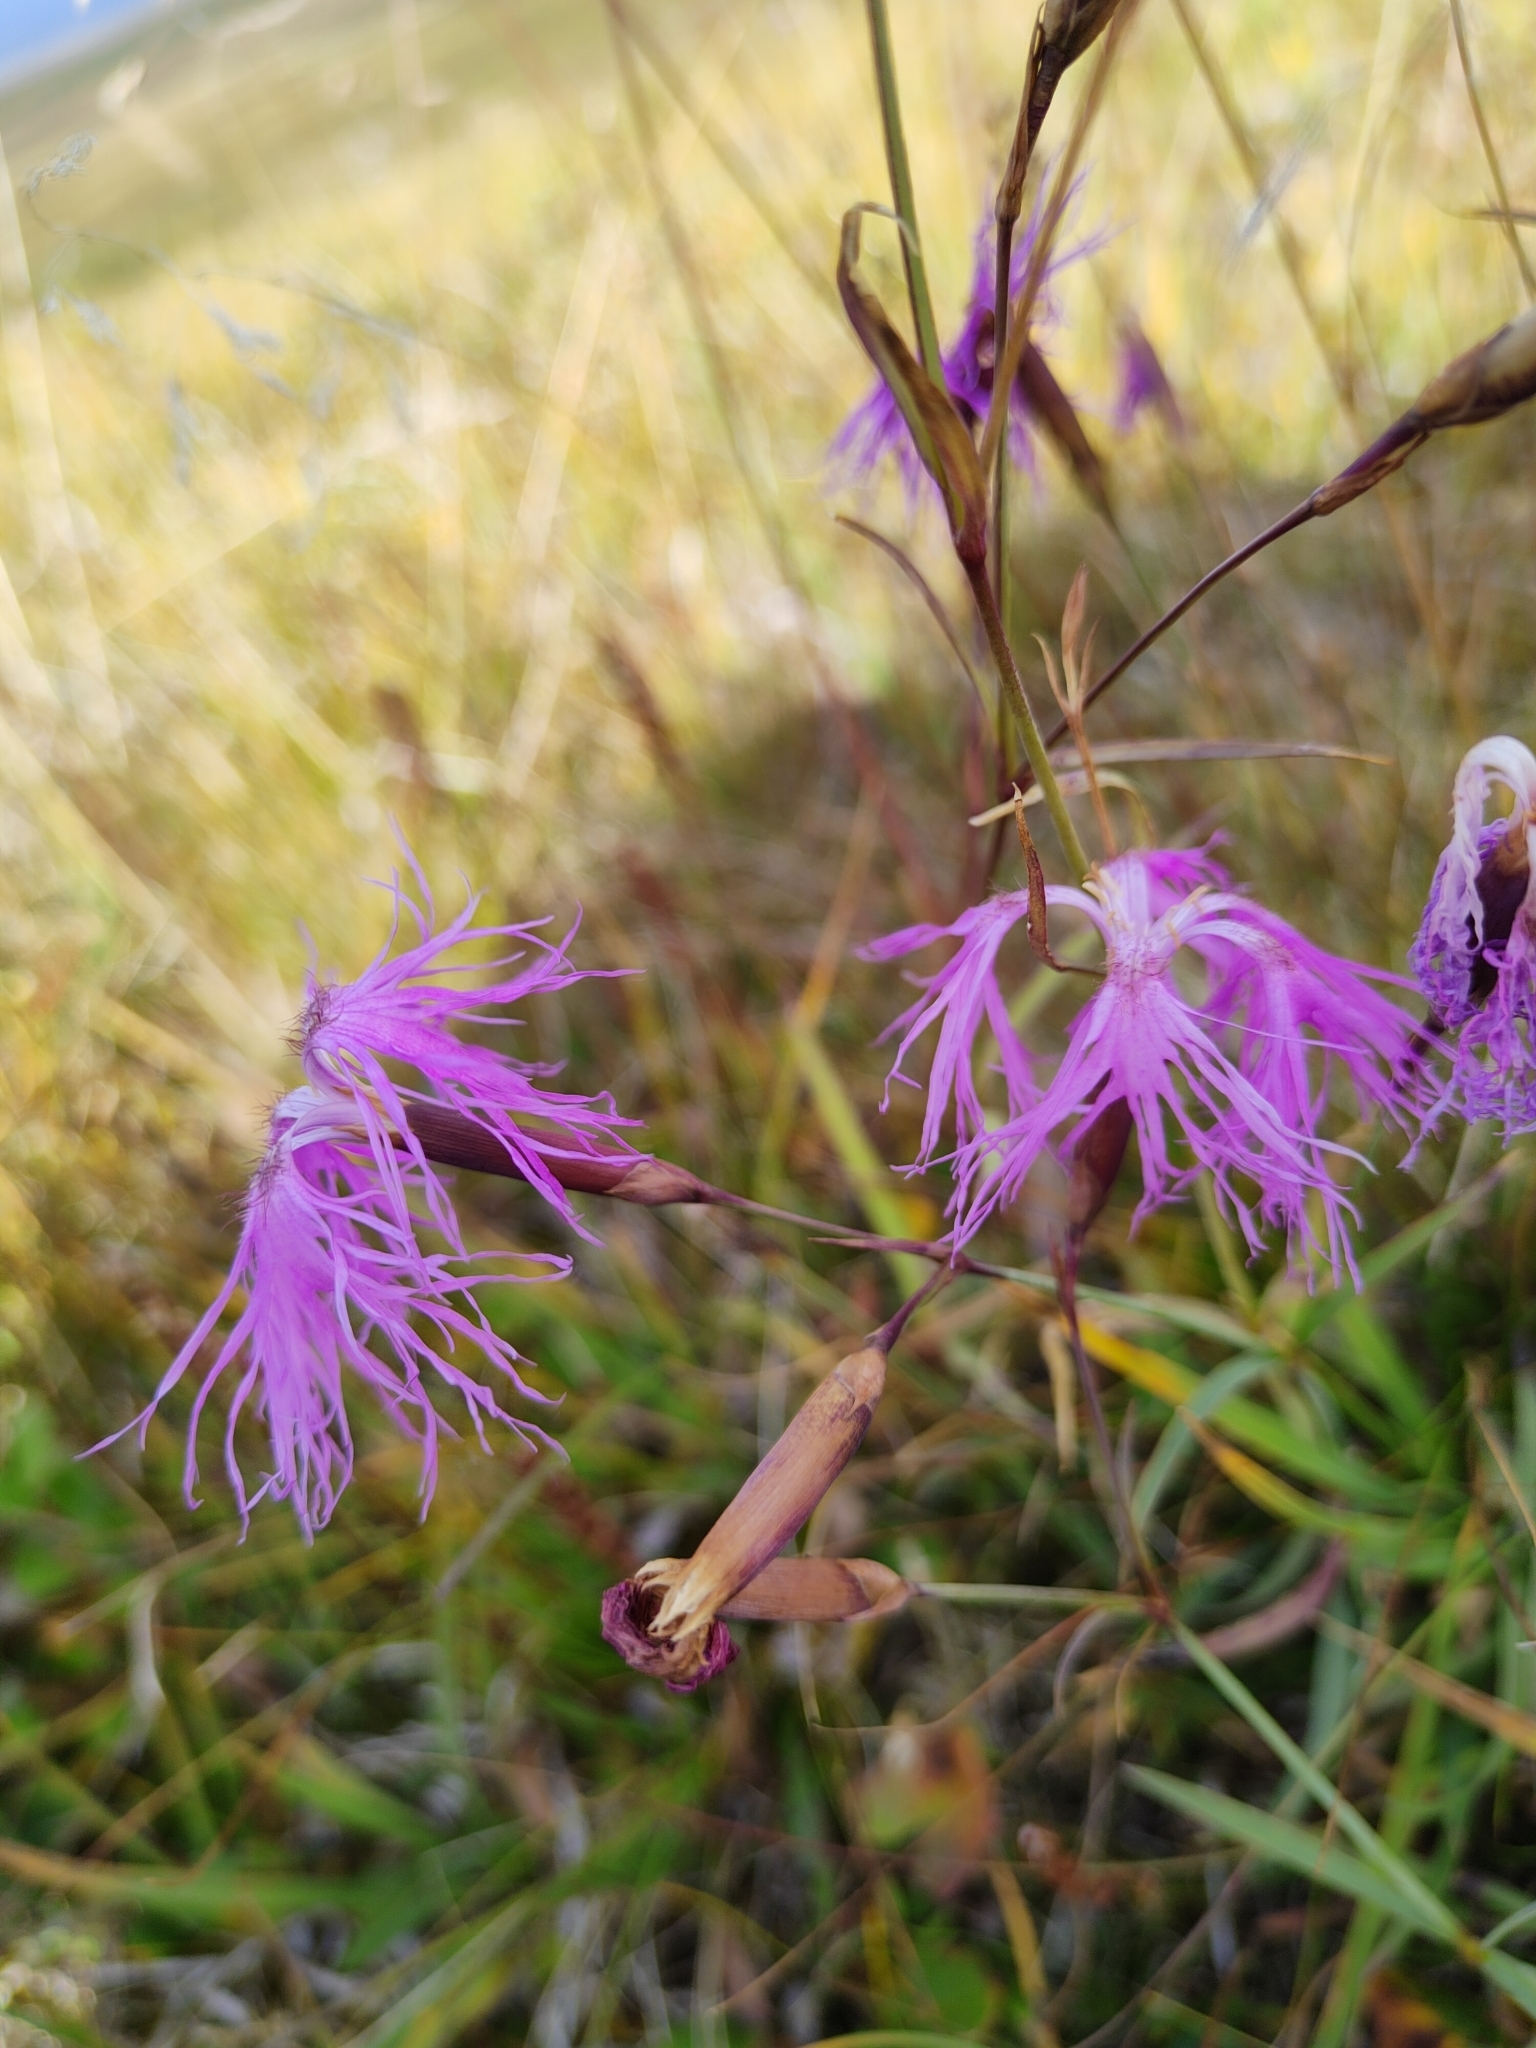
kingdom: Plantae
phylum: Tracheophyta
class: Magnoliopsida
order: Caryophyllales
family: Caryophyllaceae
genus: Dianthus
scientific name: Dianthus superbus
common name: Fringed pink
